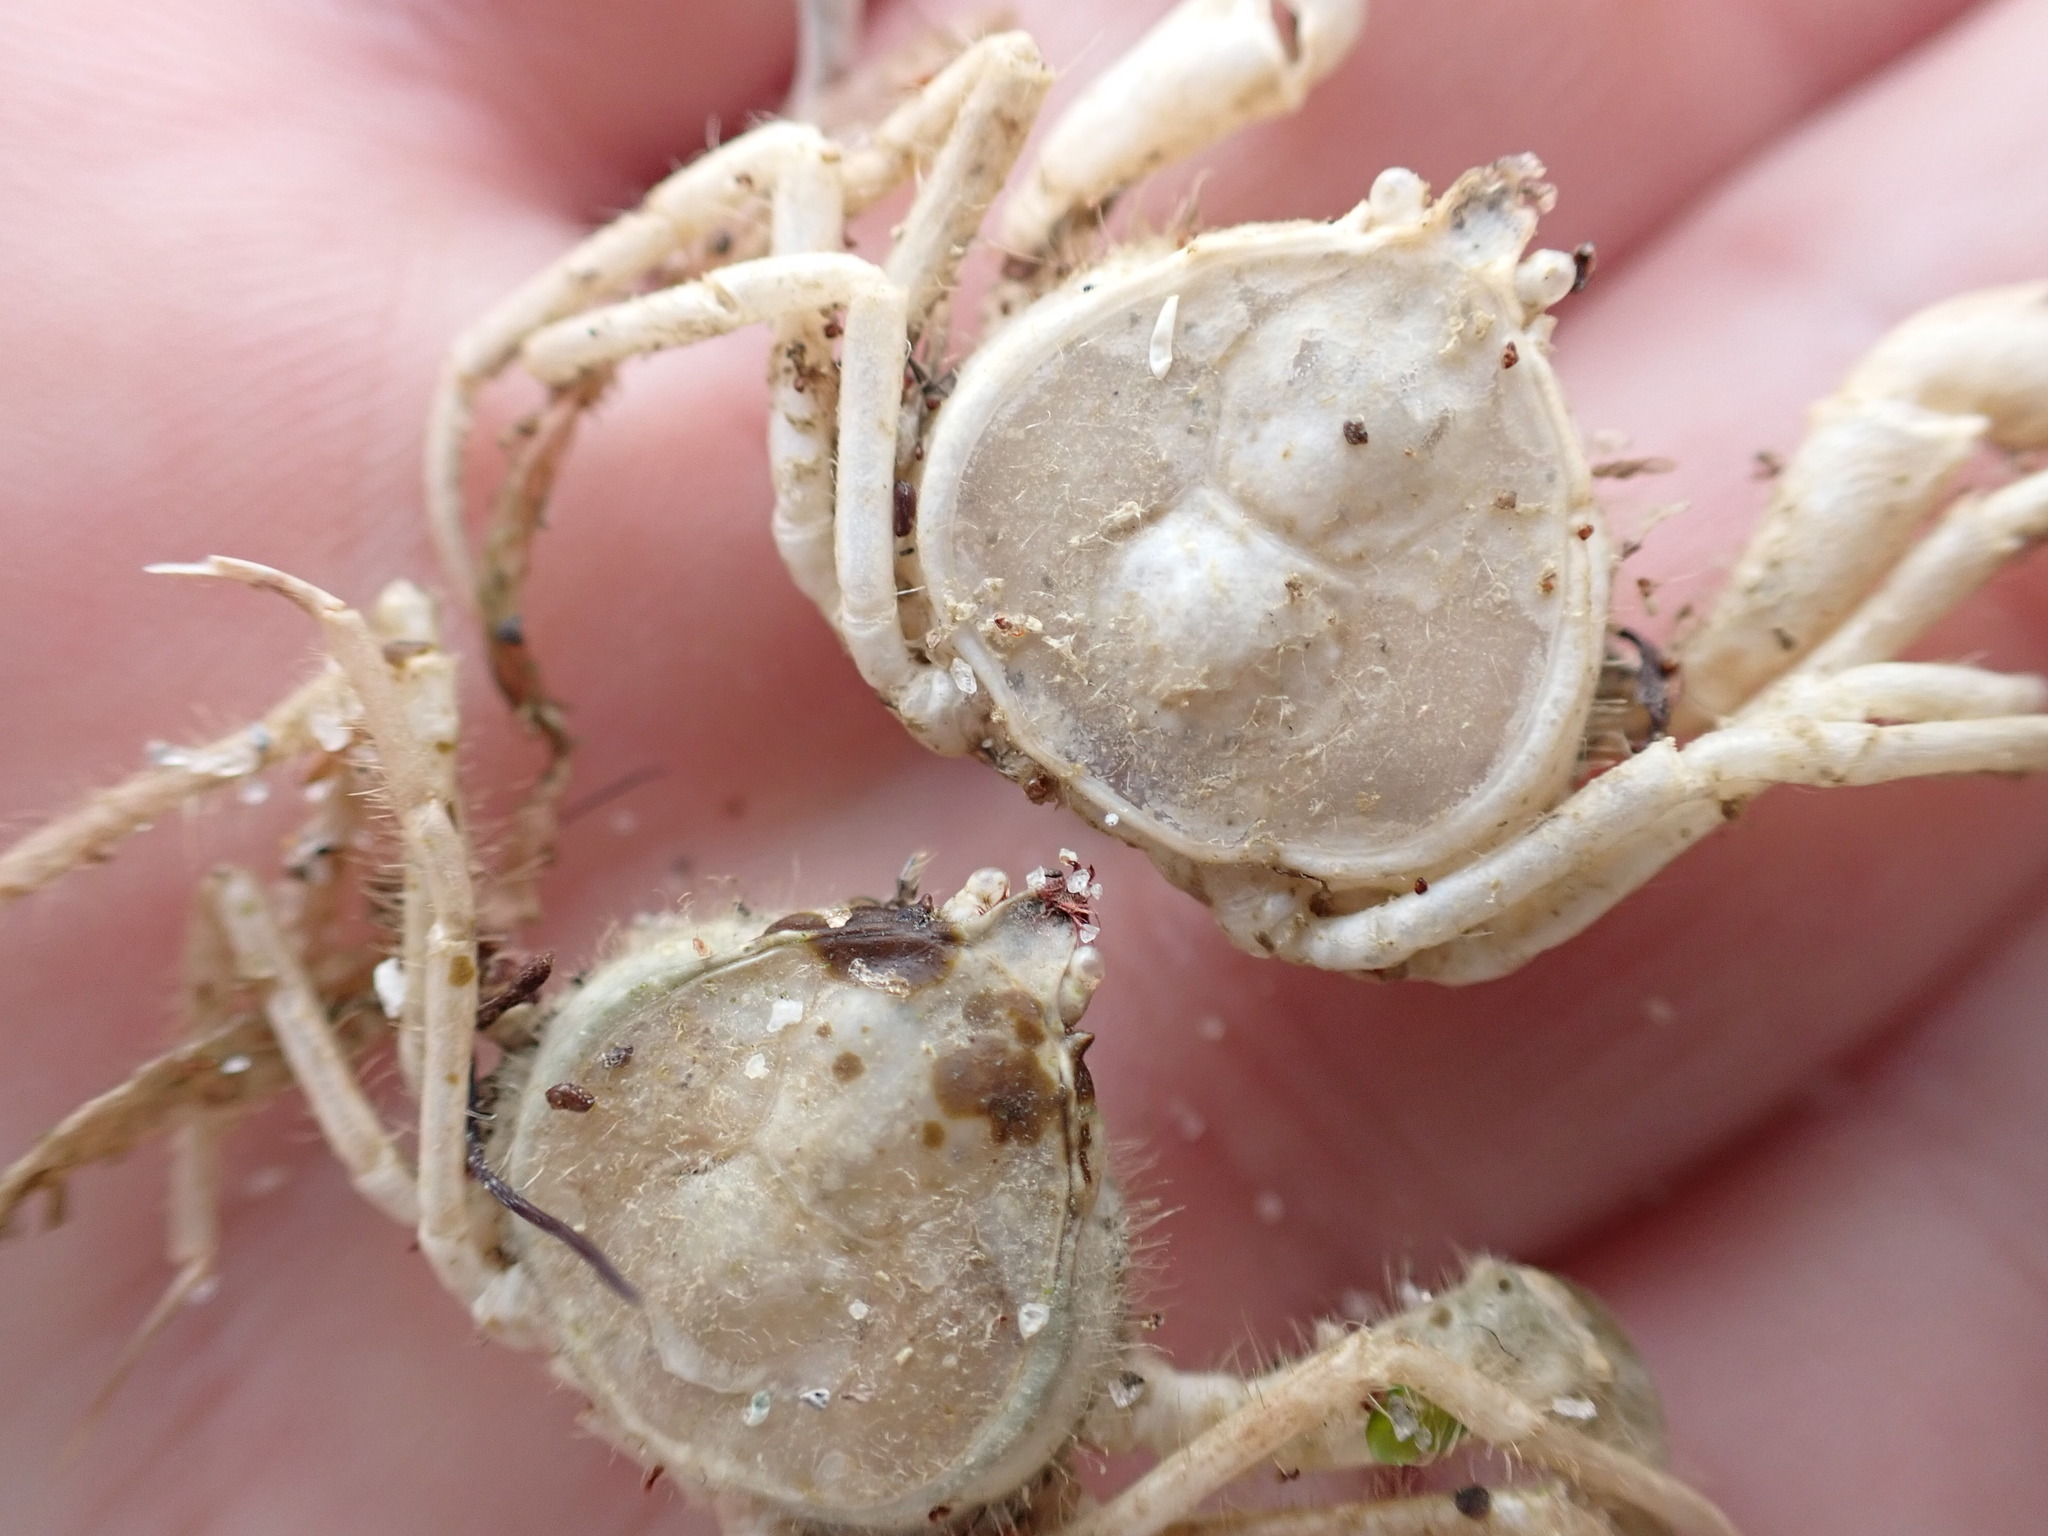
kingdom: Animalia
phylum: Arthropoda
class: Malacostraca
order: Decapoda
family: Hymenosomatidae
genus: Halicarcinus
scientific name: Halicarcinus whitei
